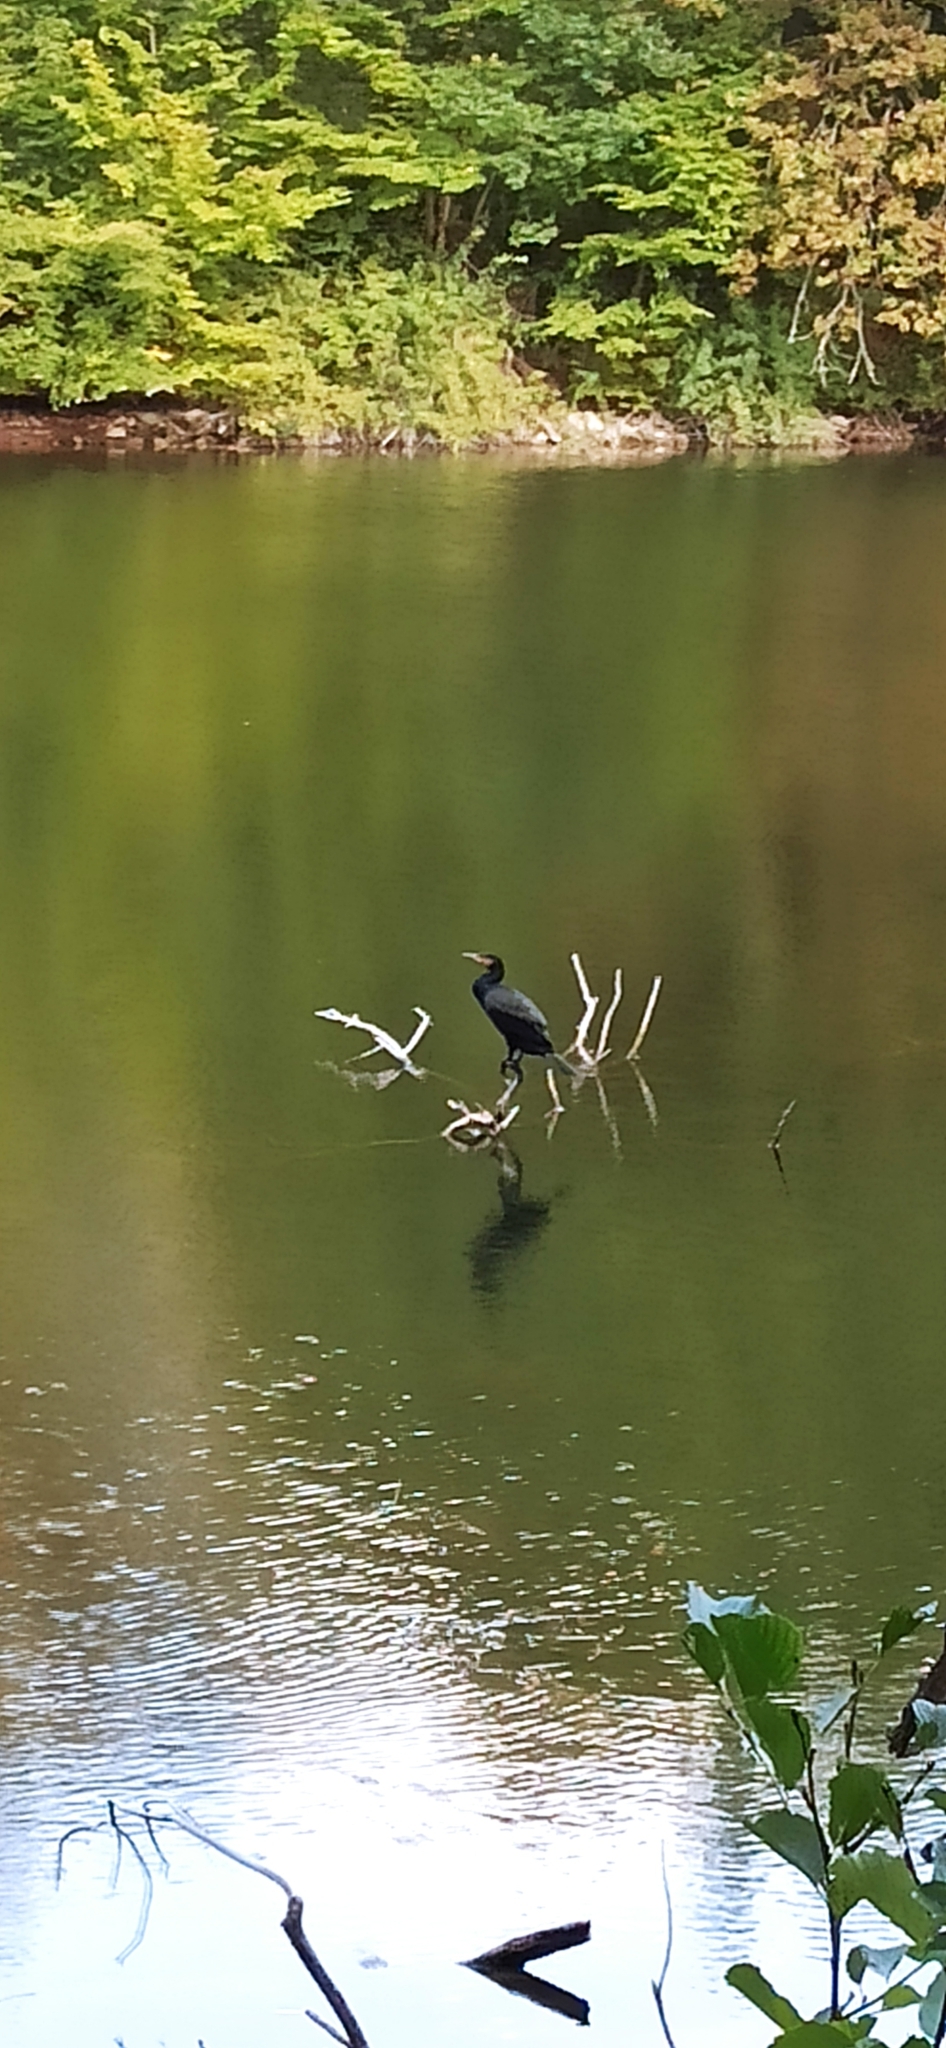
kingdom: Animalia
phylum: Chordata
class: Aves
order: Suliformes
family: Phalacrocoracidae
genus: Phalacrocorax
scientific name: Phalacrocorax carbo
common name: Great cormorant
